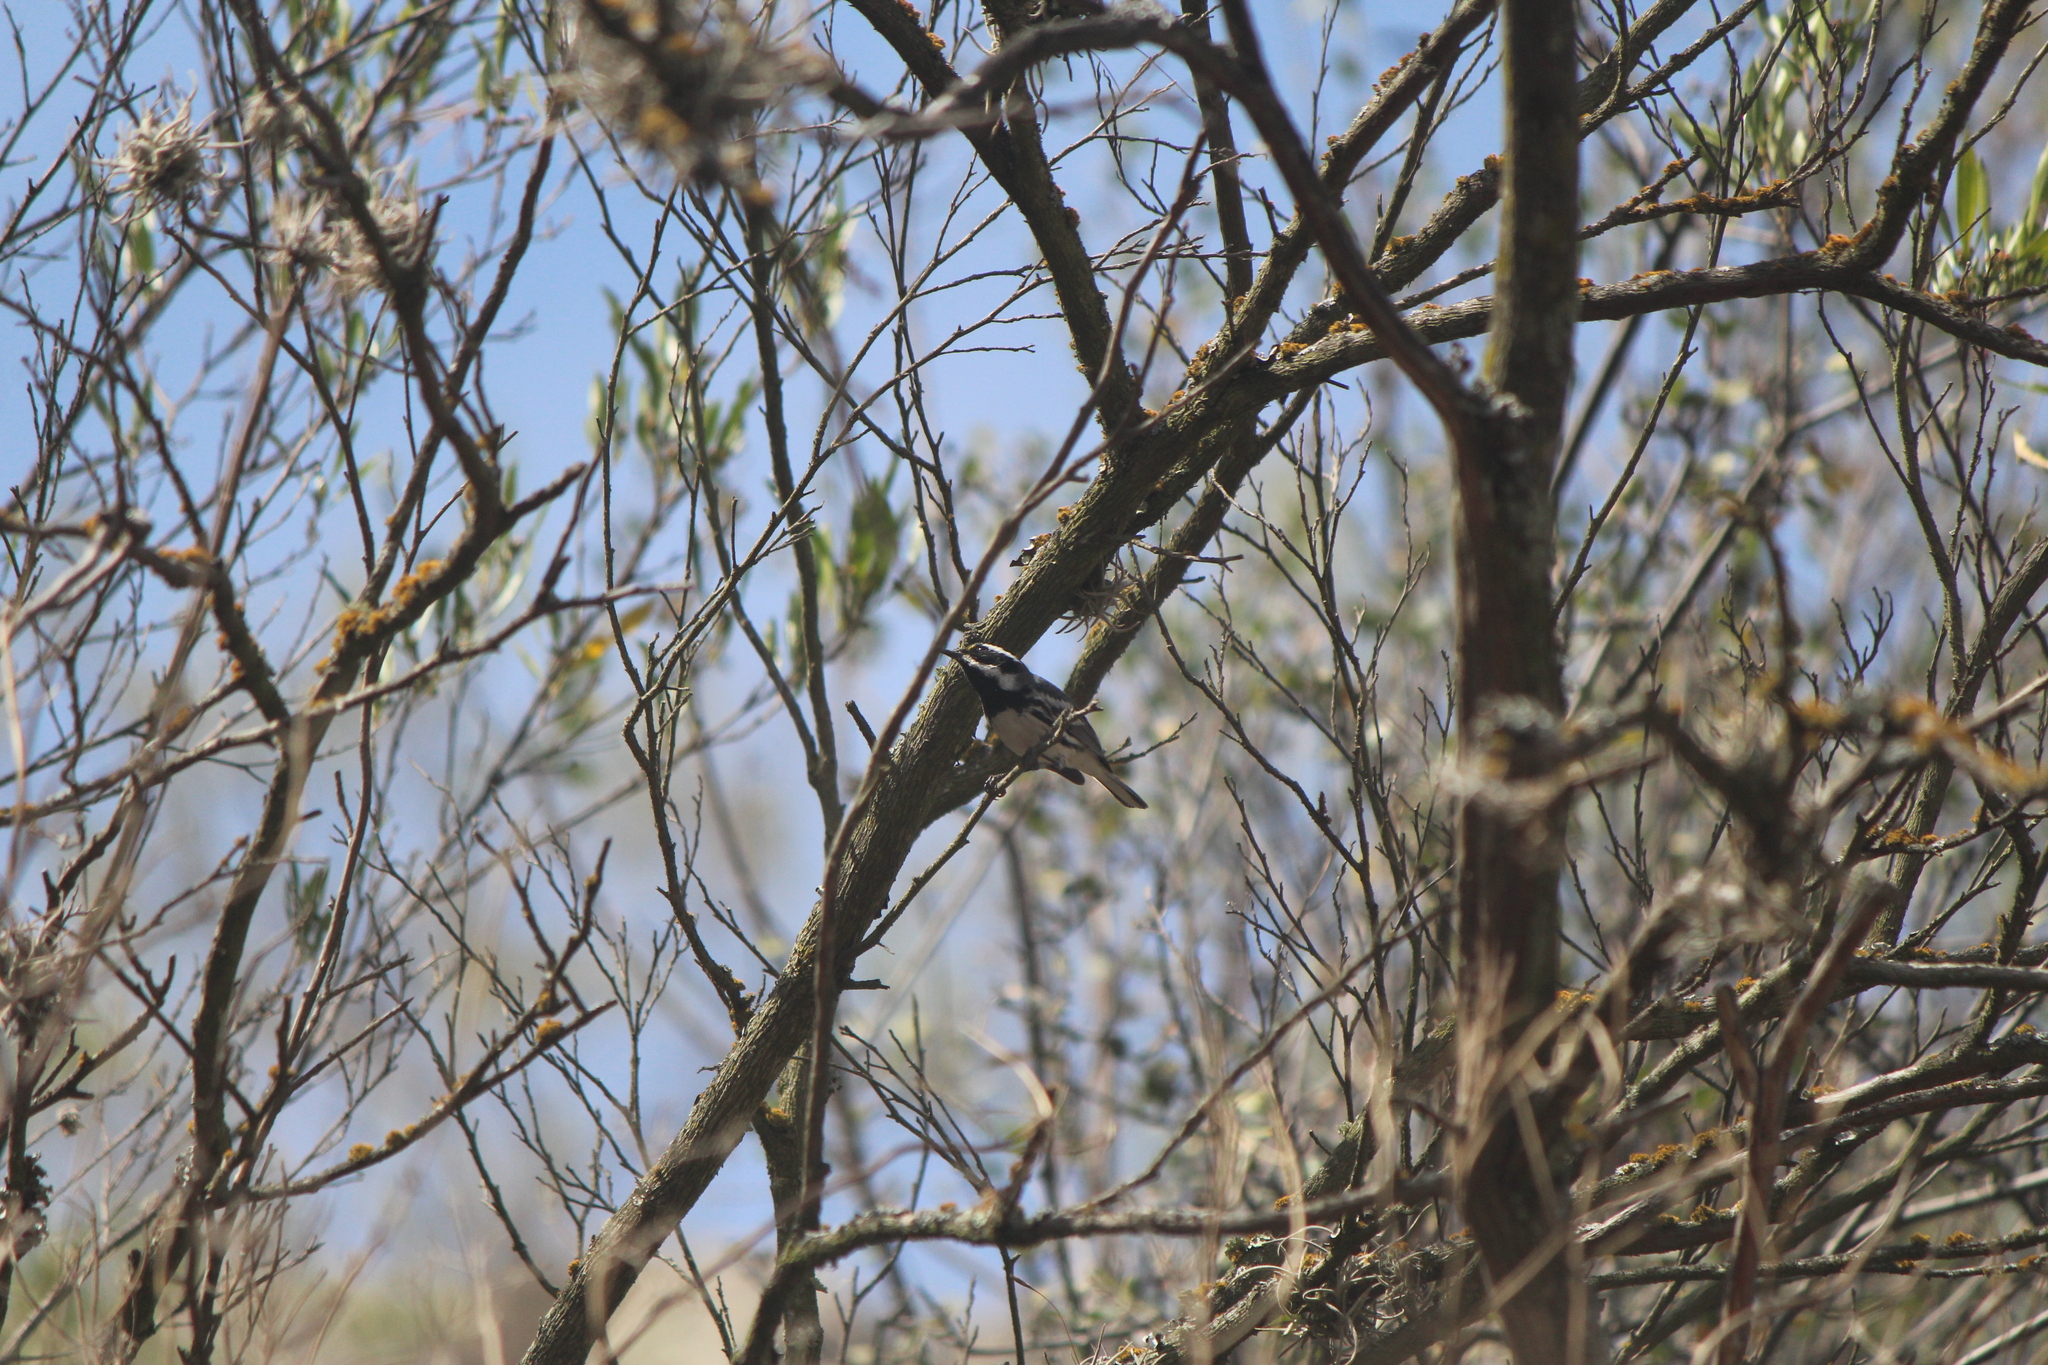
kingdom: Animalia
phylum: Chordata
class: Aves
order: Passeriformes
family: Parulidae
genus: Setophaga
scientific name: Setophaga nigrescens
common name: Black-throated gray warbler
